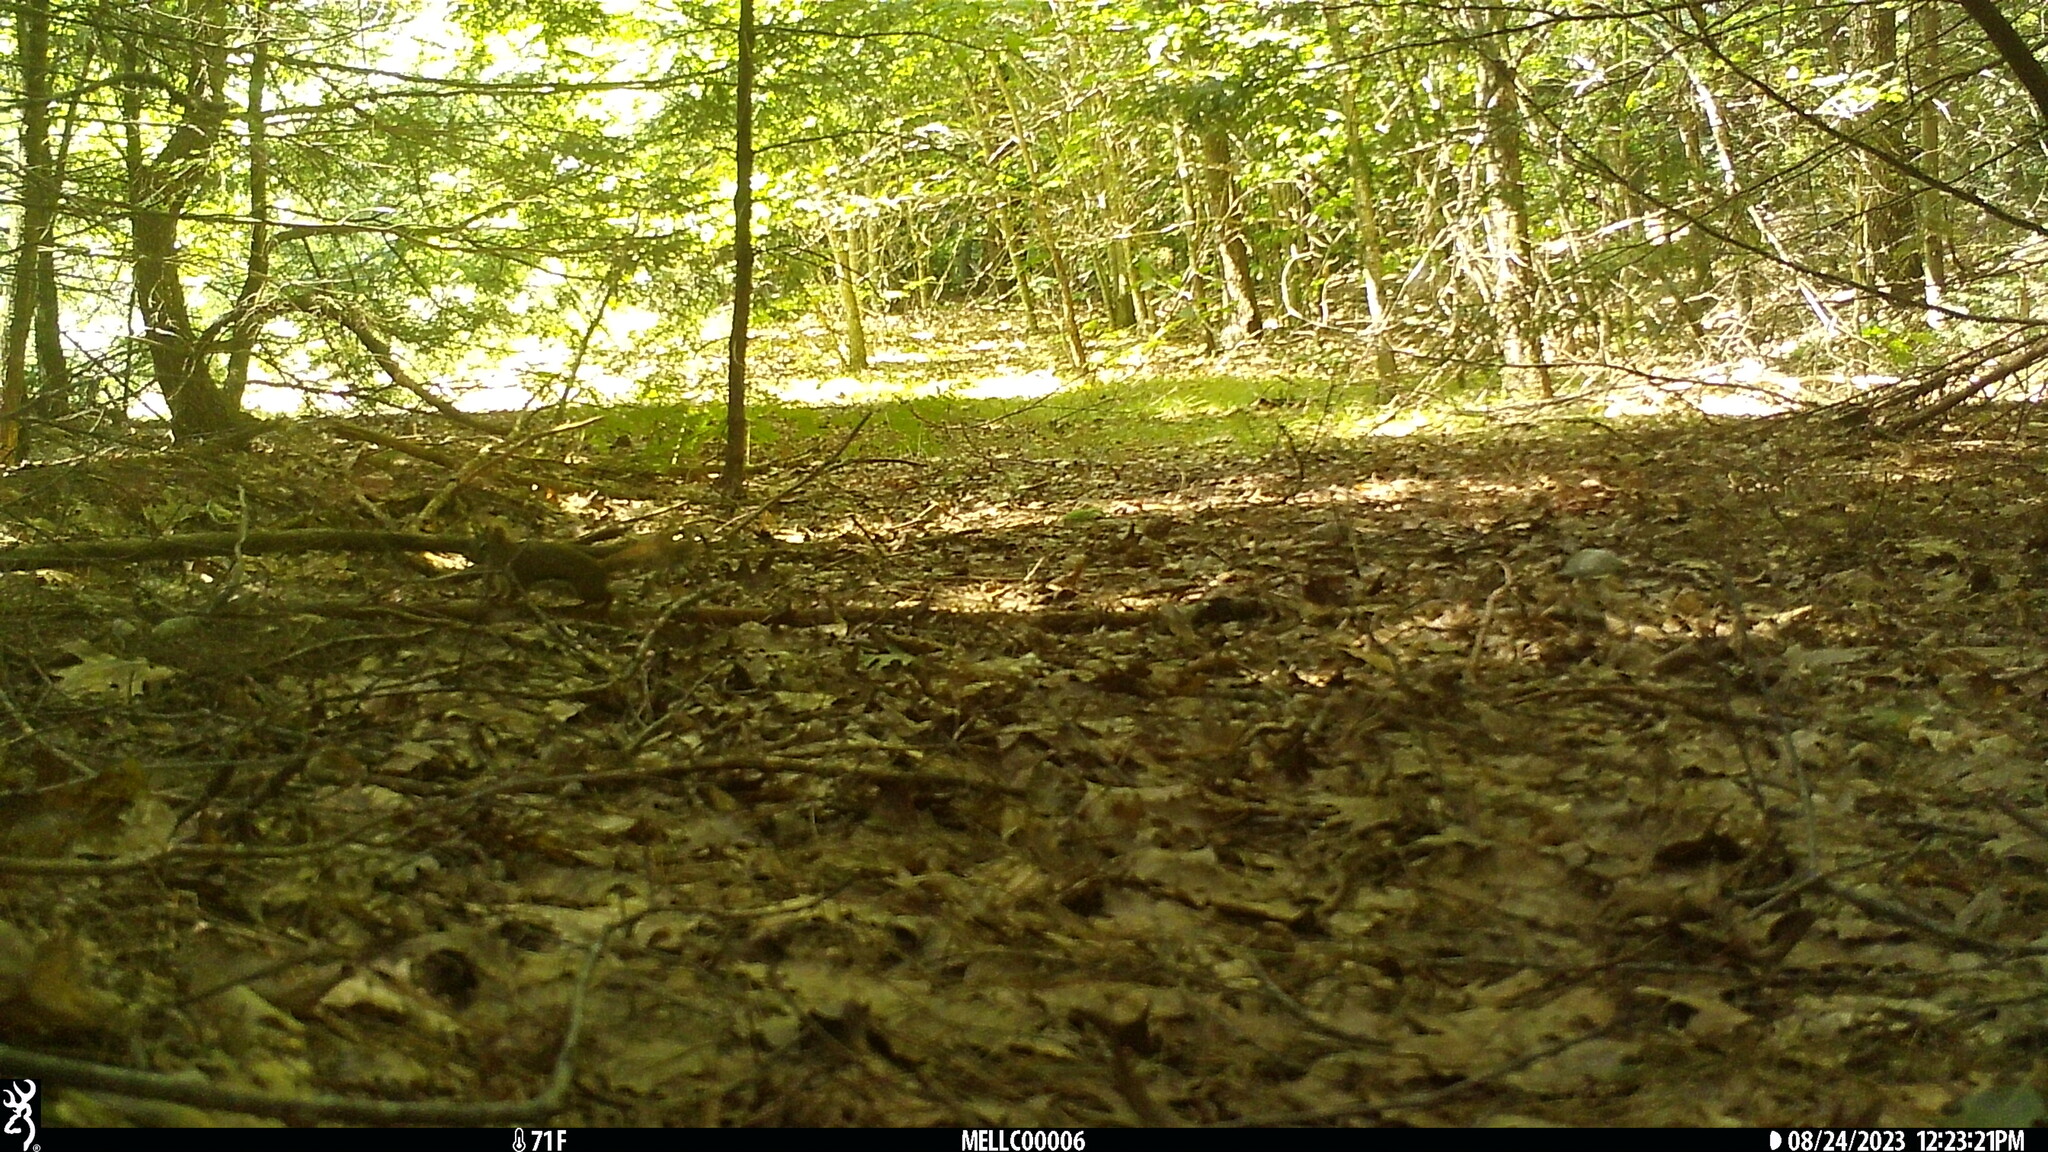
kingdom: Animalia
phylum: Chordata
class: Mammalia
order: Rodentia
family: Sciuridae
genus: Tamiasciurus
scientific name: Tamiasciurus hudsonicus
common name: Red squirrel
